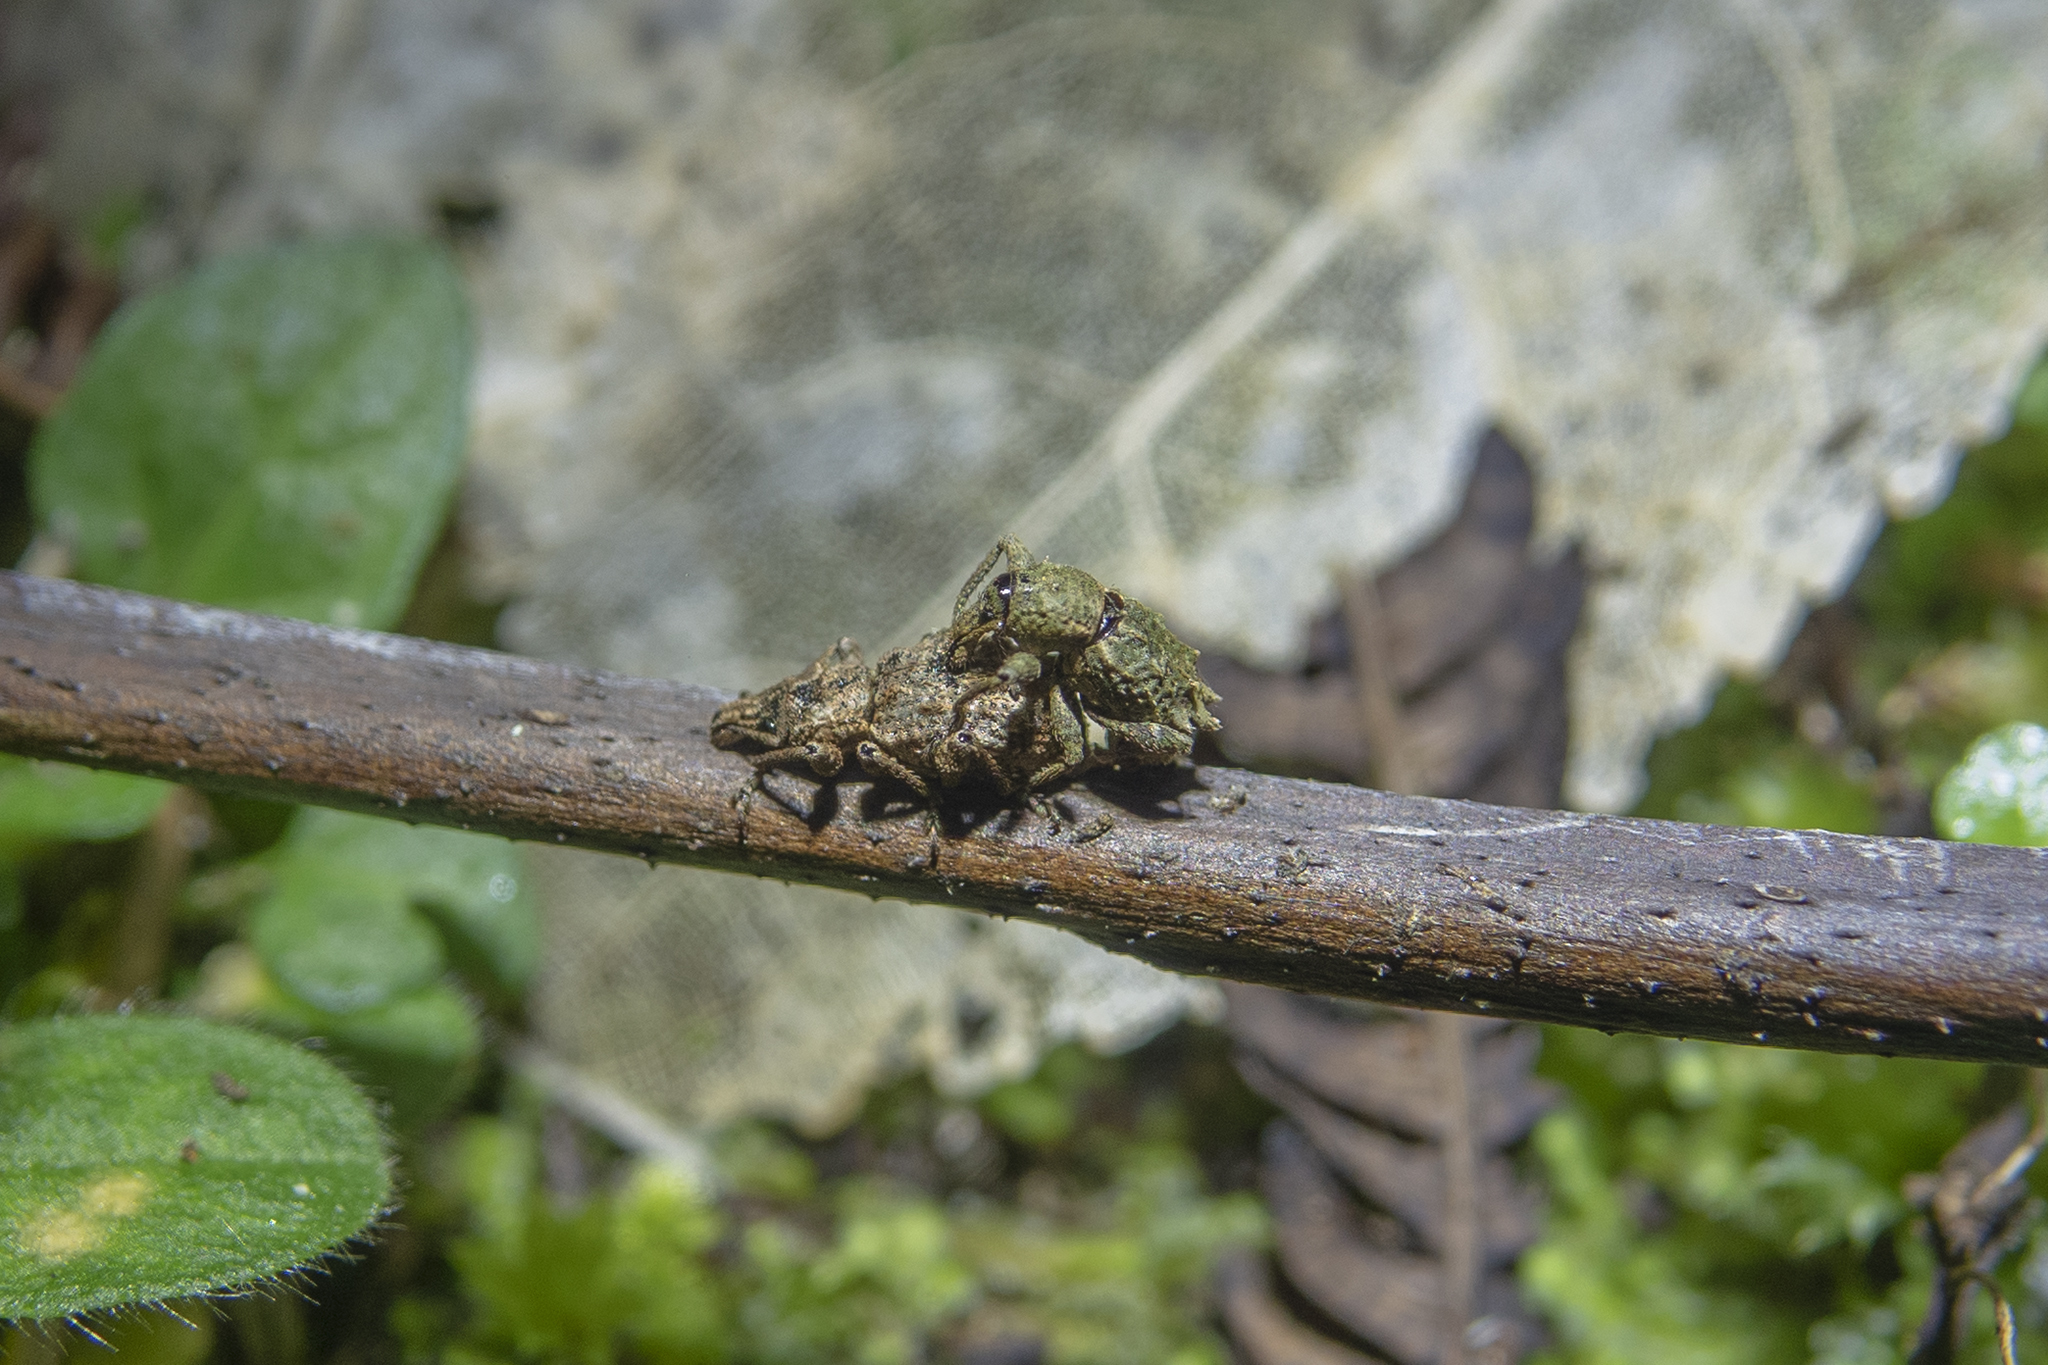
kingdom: Animalia
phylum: Arthropoda
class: Insecta
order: Coleoptera
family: Curculionidae
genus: Catoptes
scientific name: Catoptes coronatus
